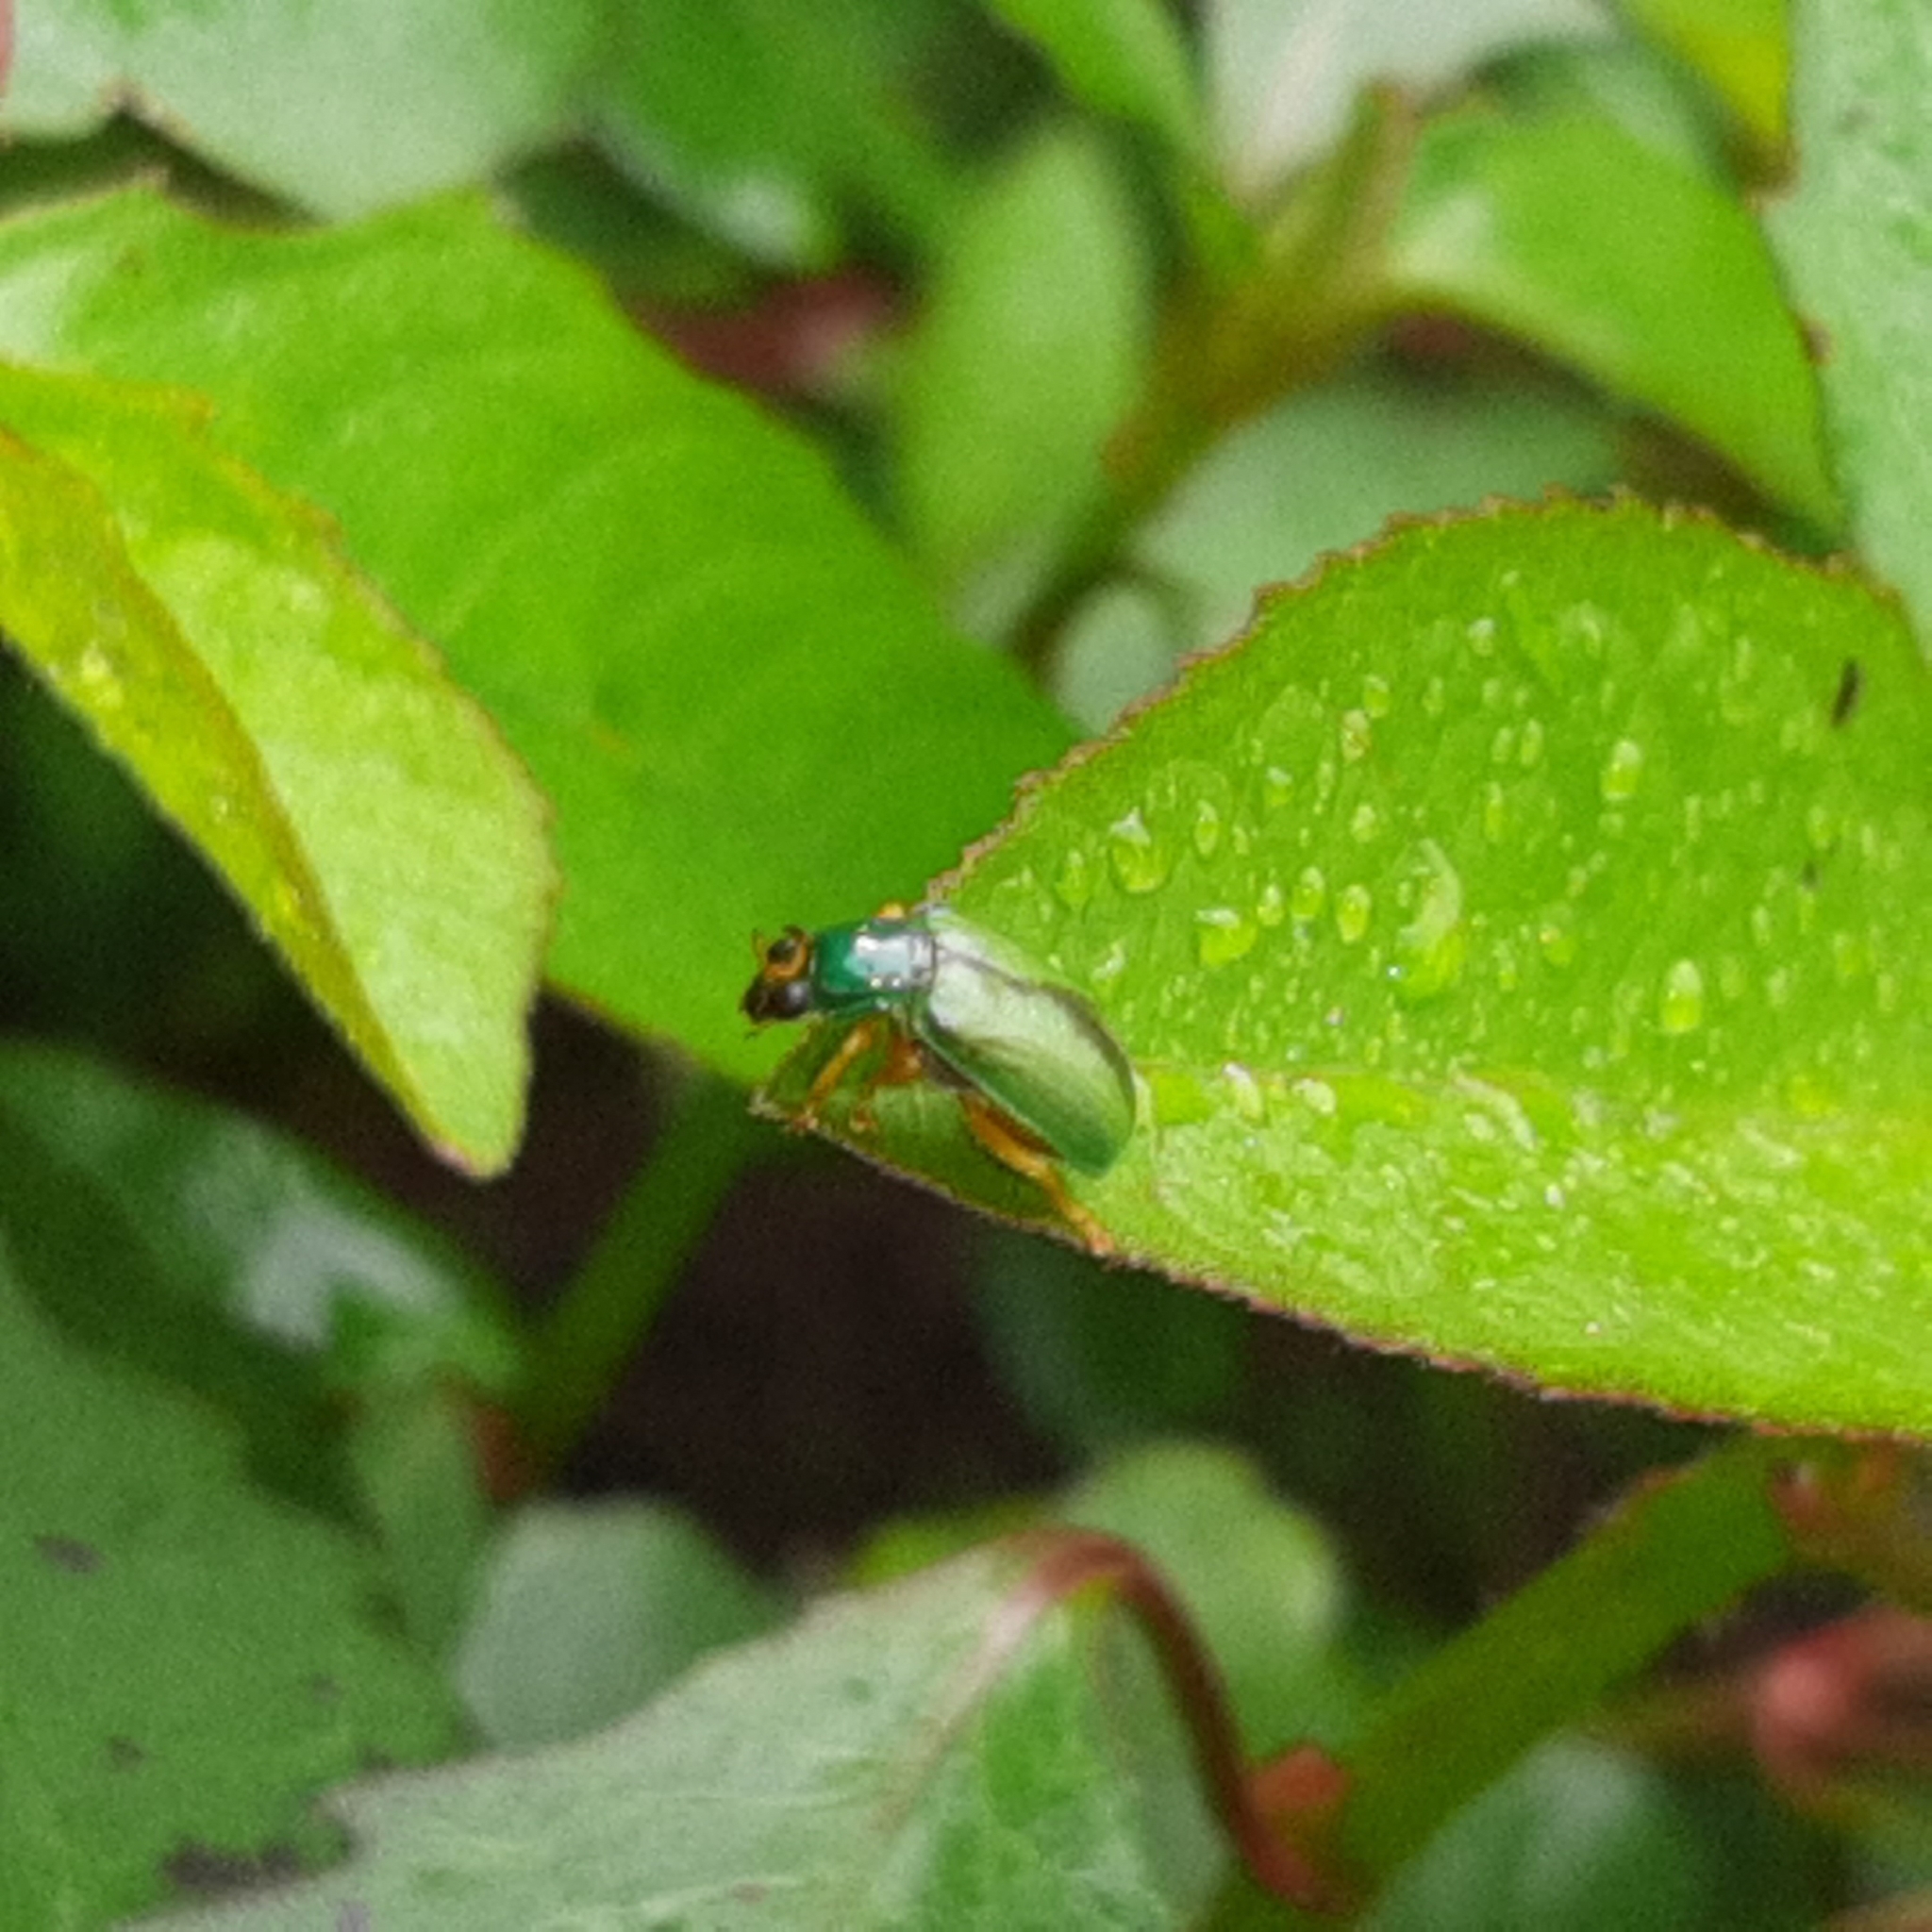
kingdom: Animalia
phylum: Arthropoda
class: Insecta
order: Coleoptera
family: Chrysomelidae
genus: Diabrotica
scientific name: Diabrotica
